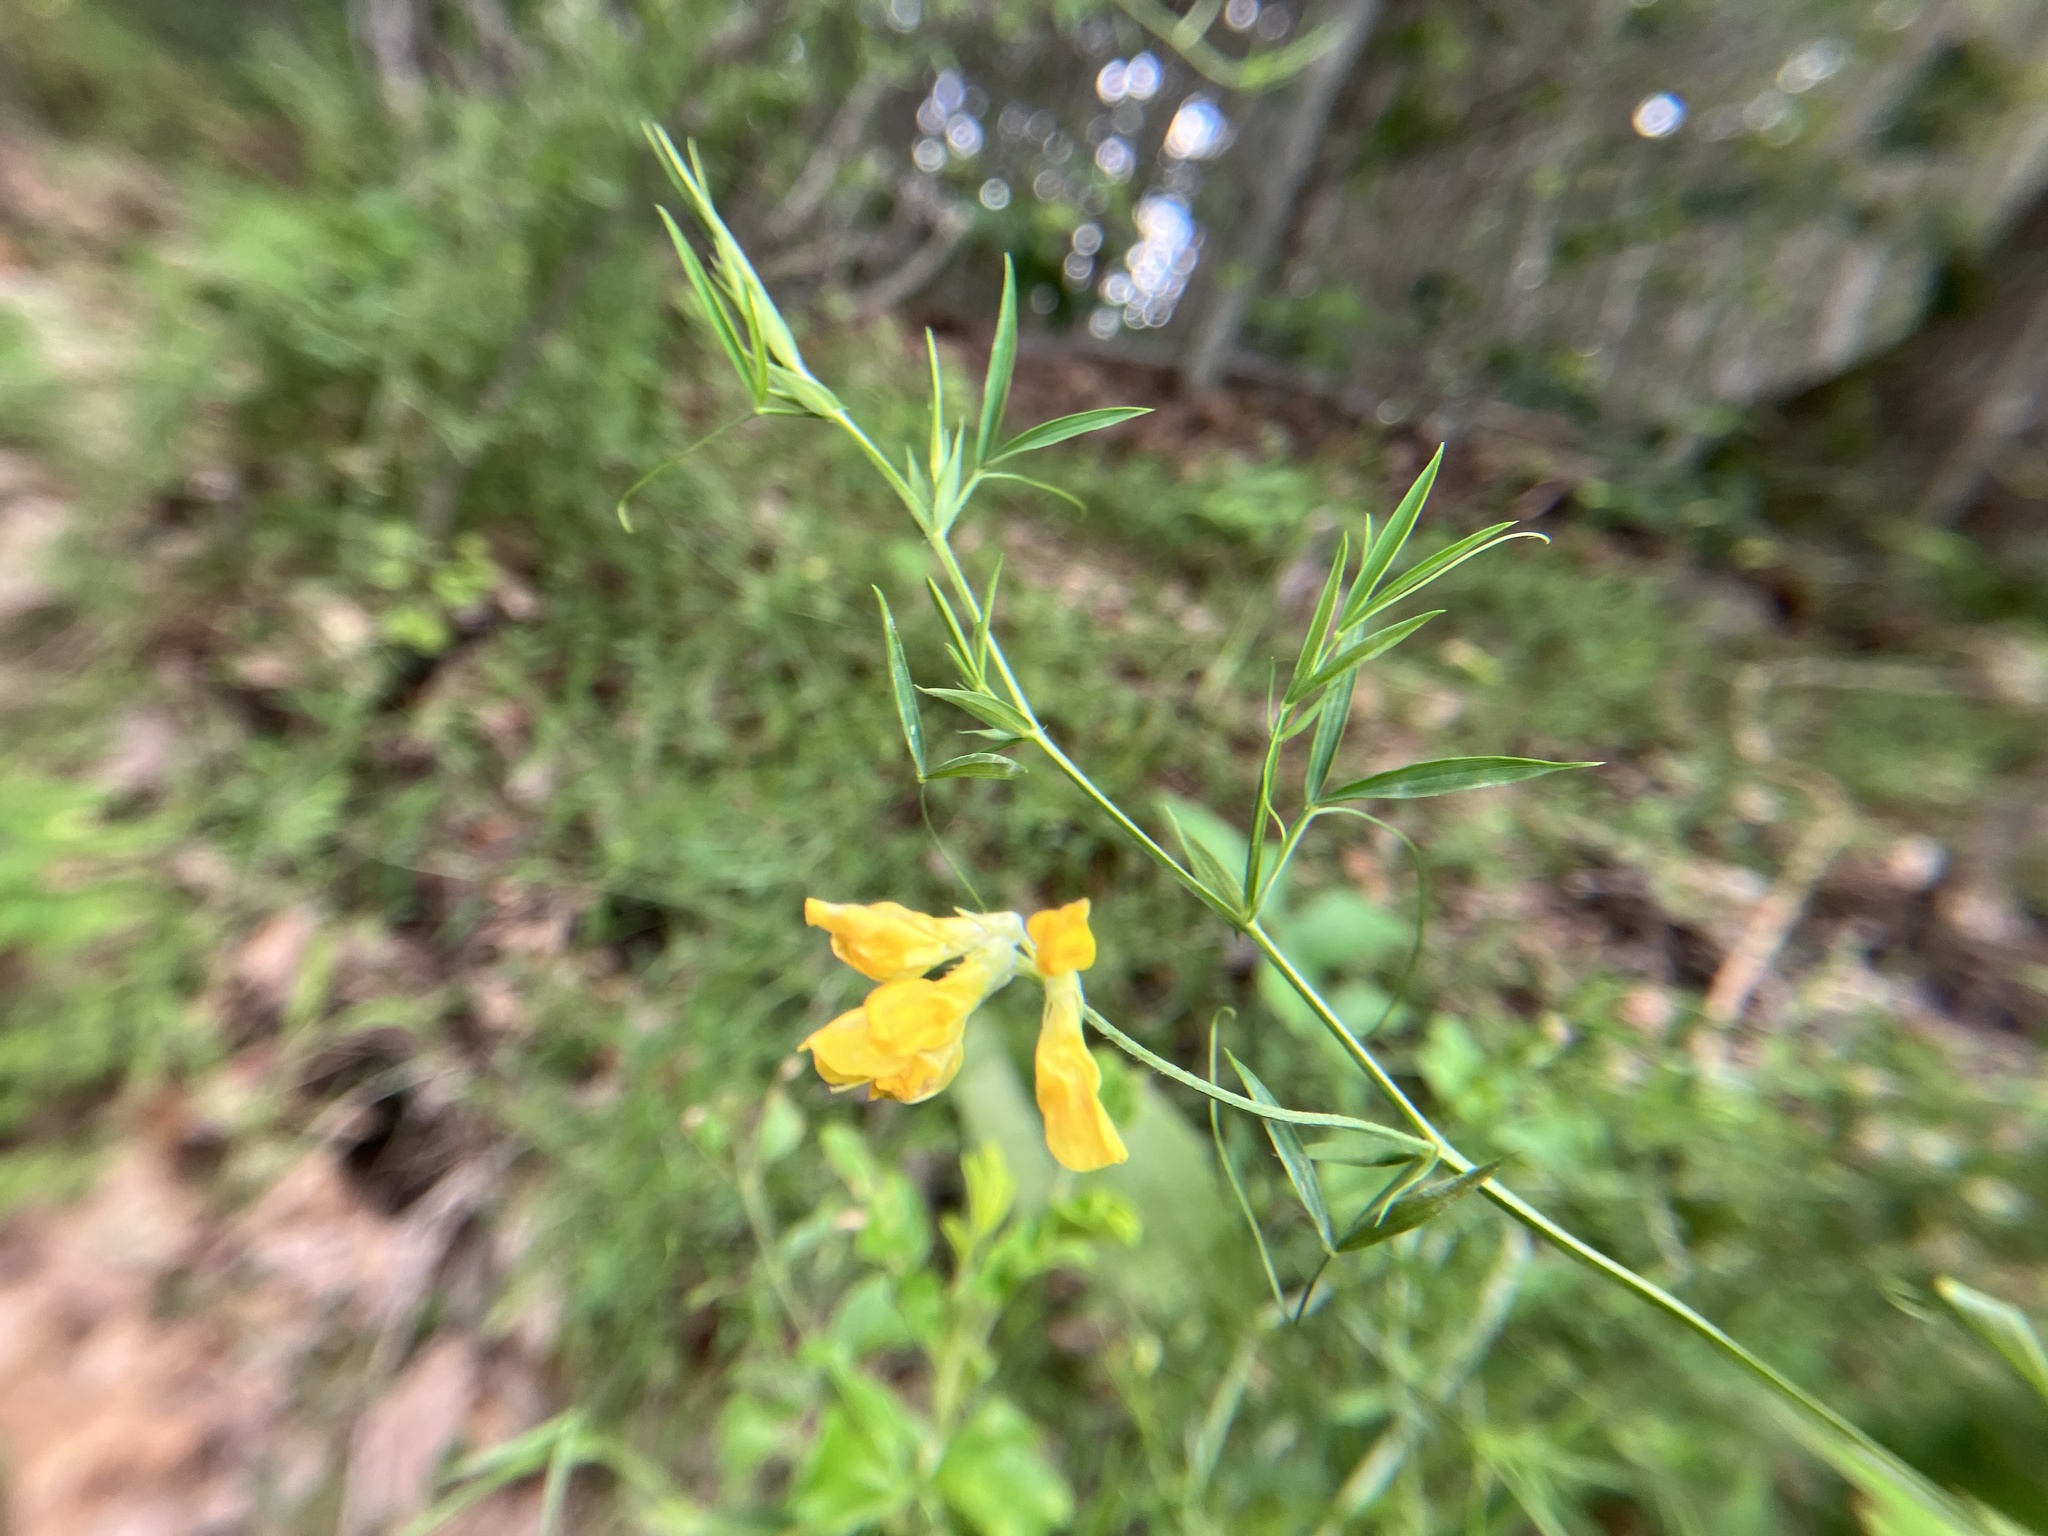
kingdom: Plantae
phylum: Tracheophyta
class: Magnoliopsida
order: Fabales
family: Fabaceae
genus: Lathyrus
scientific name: Lathyrus pratensis
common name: Meadow vetchling
